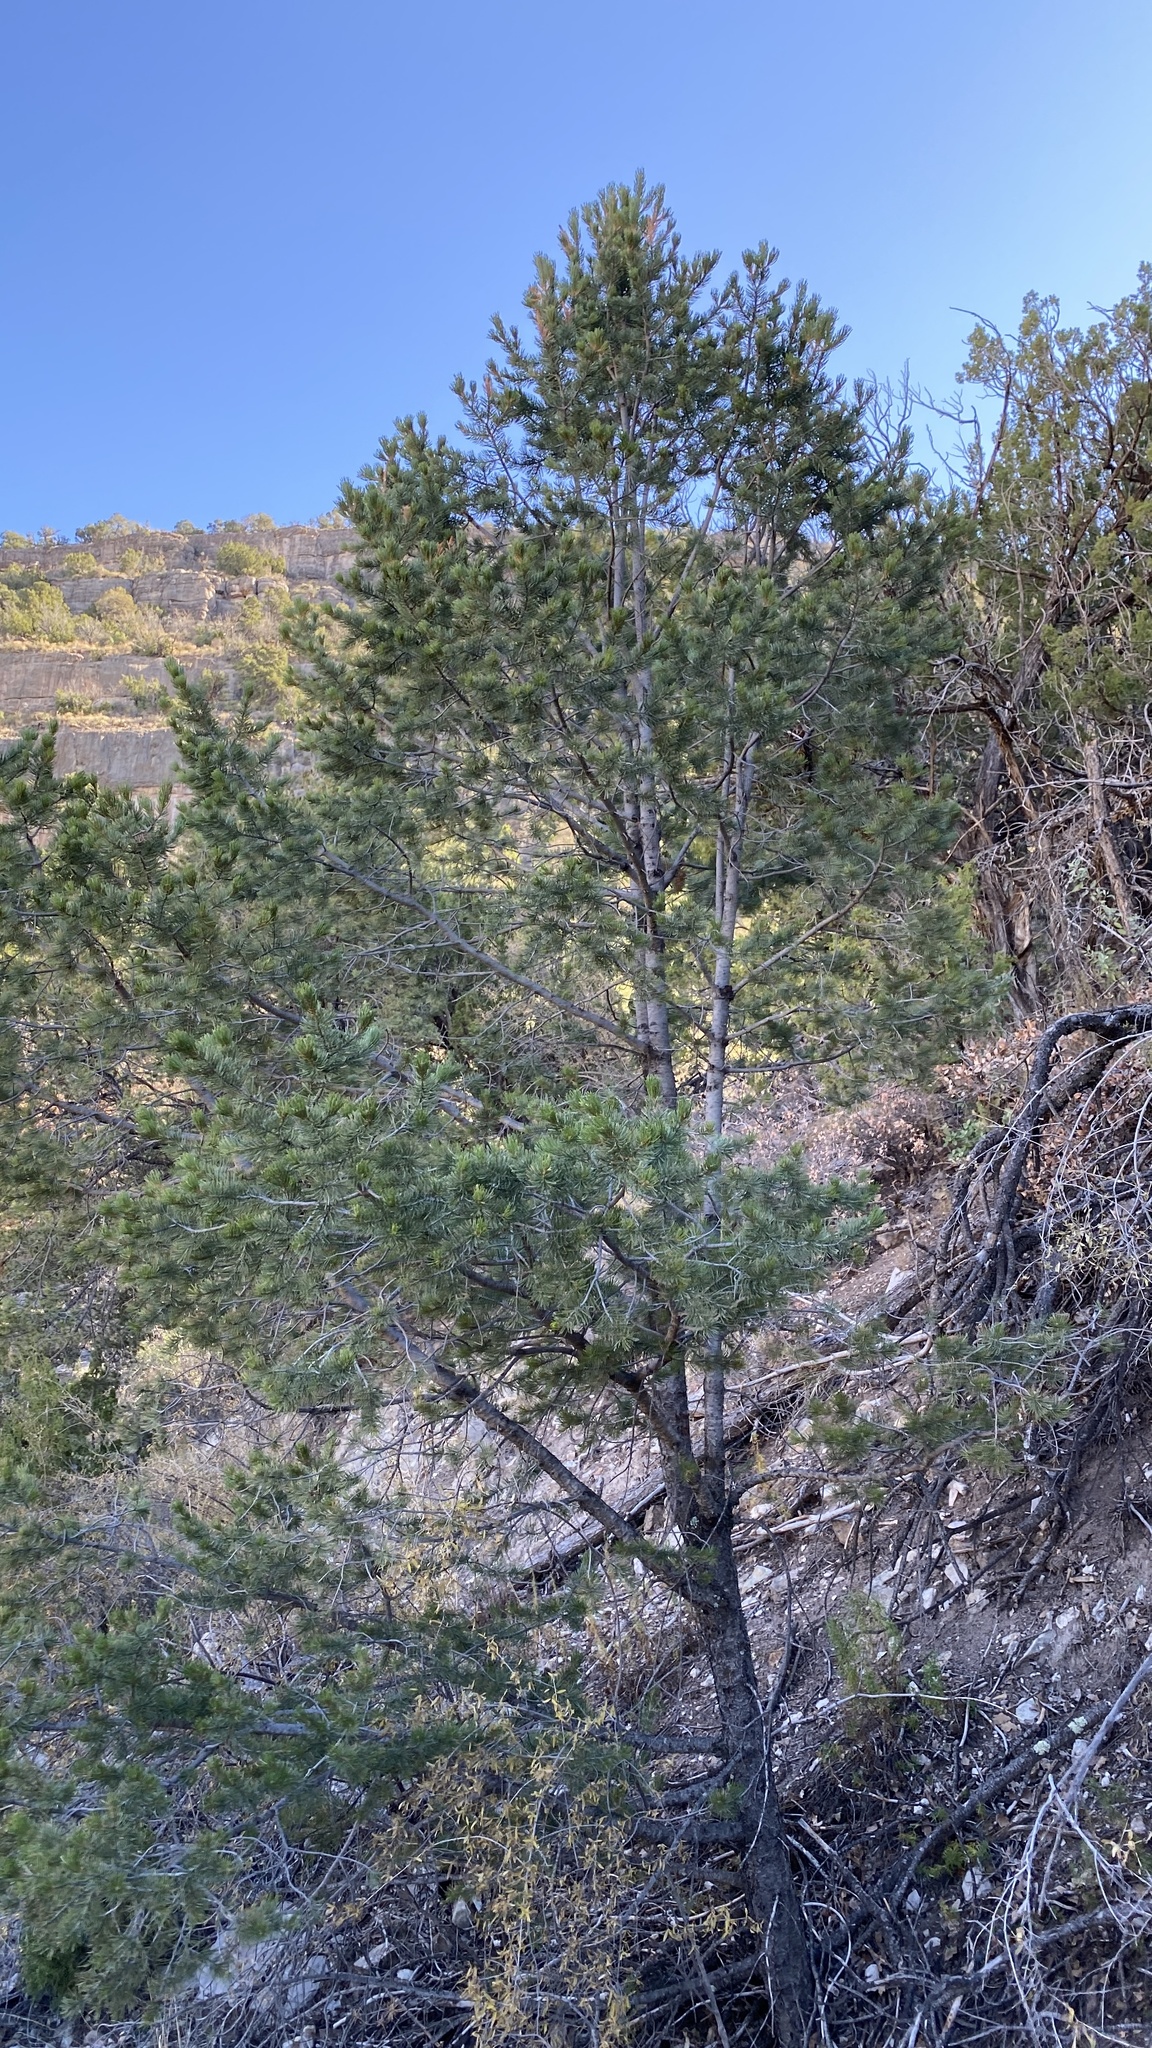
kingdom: Plantae
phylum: Tracheophyta
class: Pinopsida
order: Pinales
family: Pinaceae
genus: Pinus
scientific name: Pinus edulis
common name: Colorado pinyon
